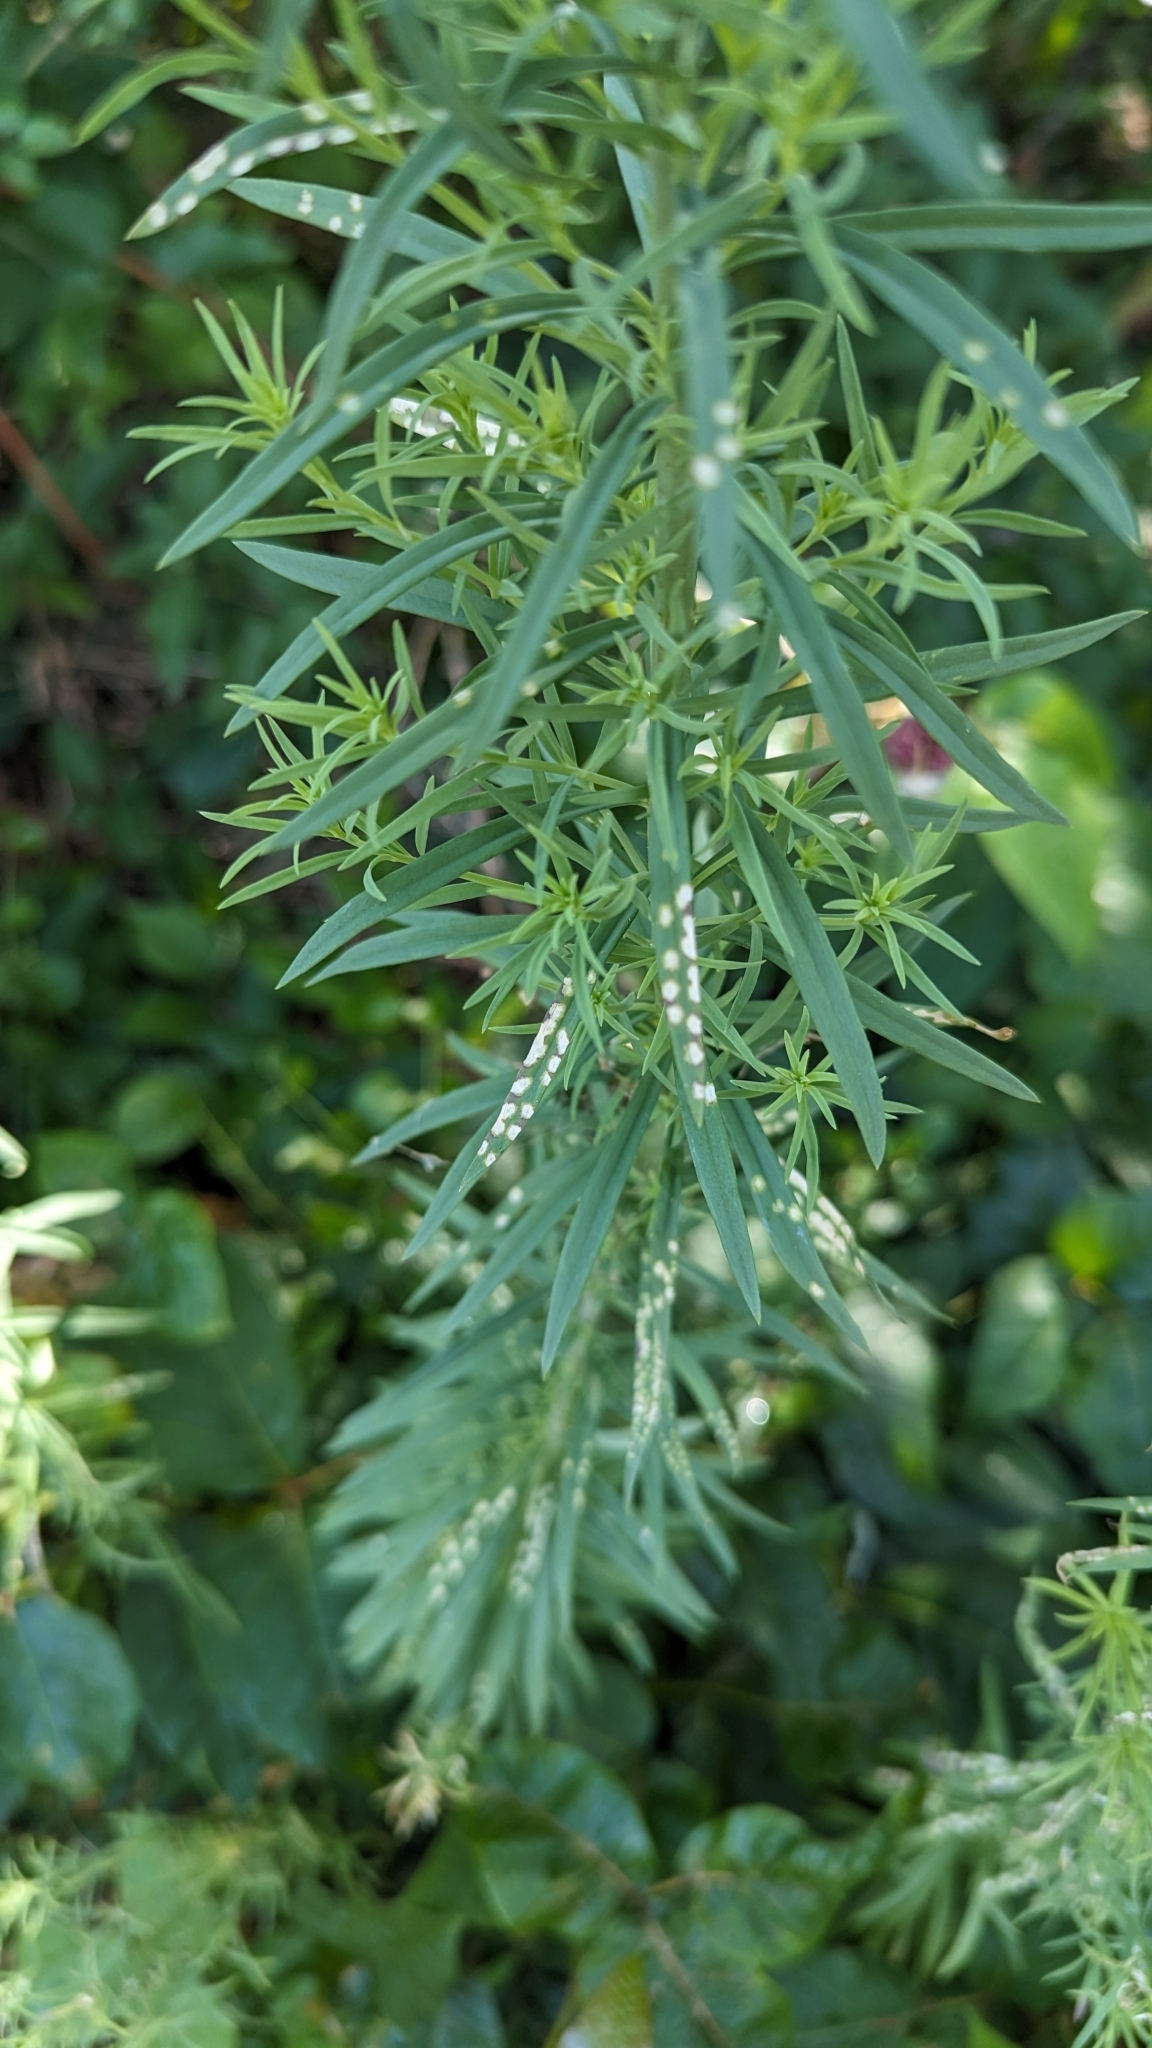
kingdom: Plantae
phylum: Tracheophyta
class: Magnoliopsida
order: Lamiales
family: Plantaginaceae
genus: Linaria
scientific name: Linaria vulgaris
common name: Butter and eggs
